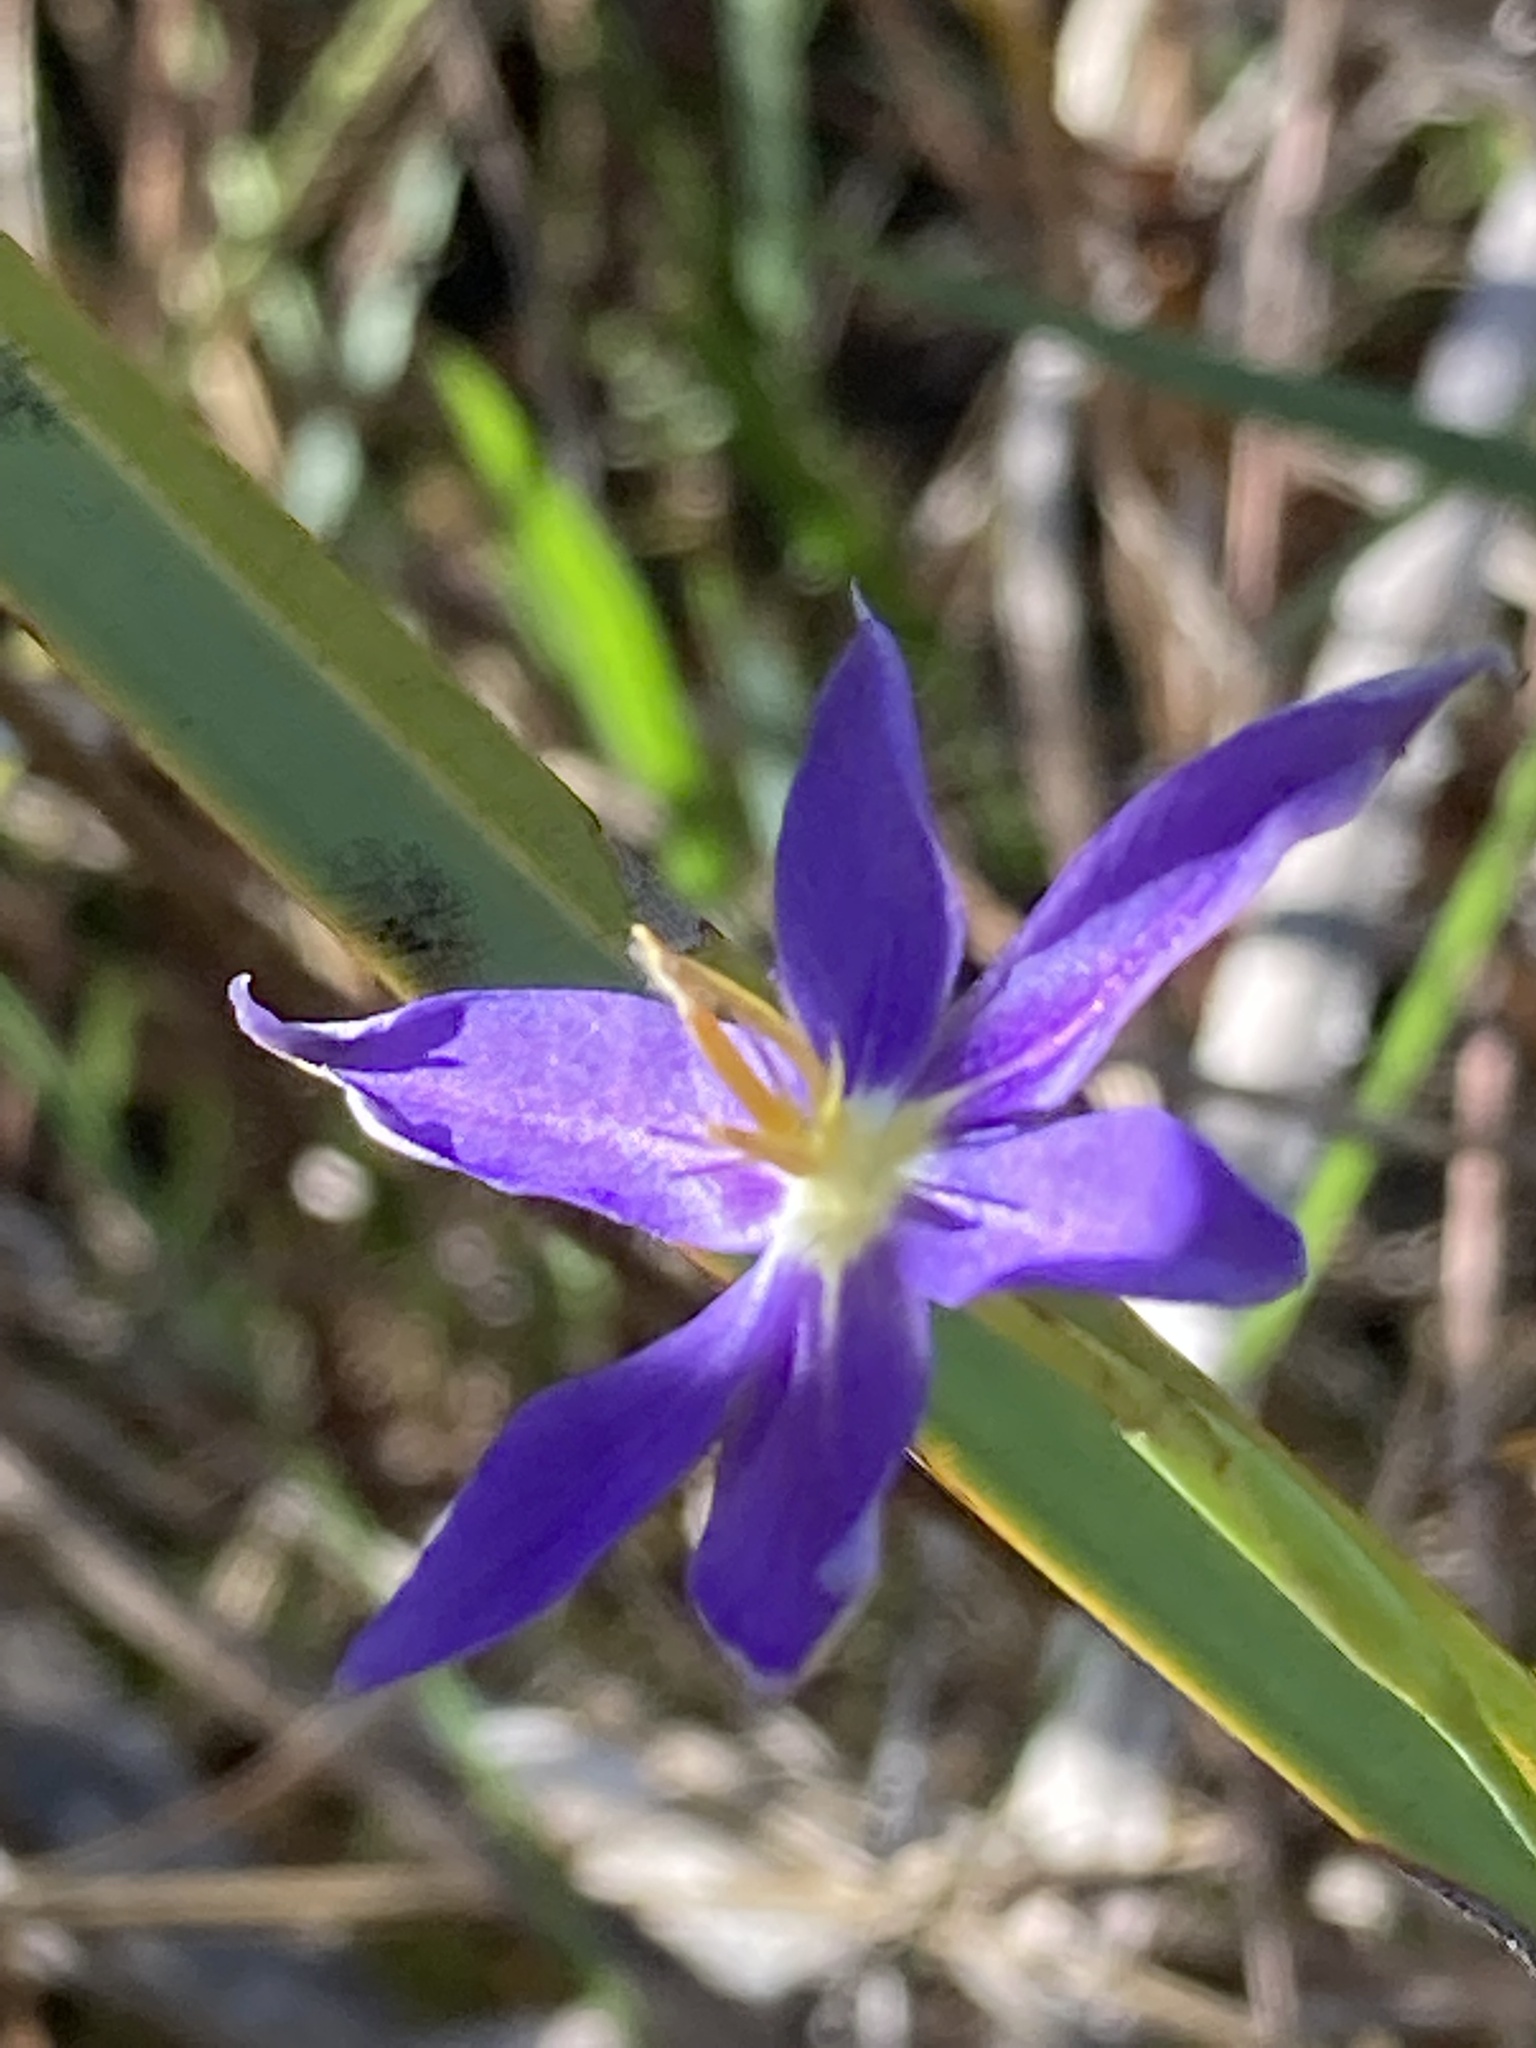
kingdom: Plantae
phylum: Tracheophyta
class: Liliopsida
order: Asparagales
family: Iridaceae
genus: Nemastylis
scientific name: Nemastylis floridana
